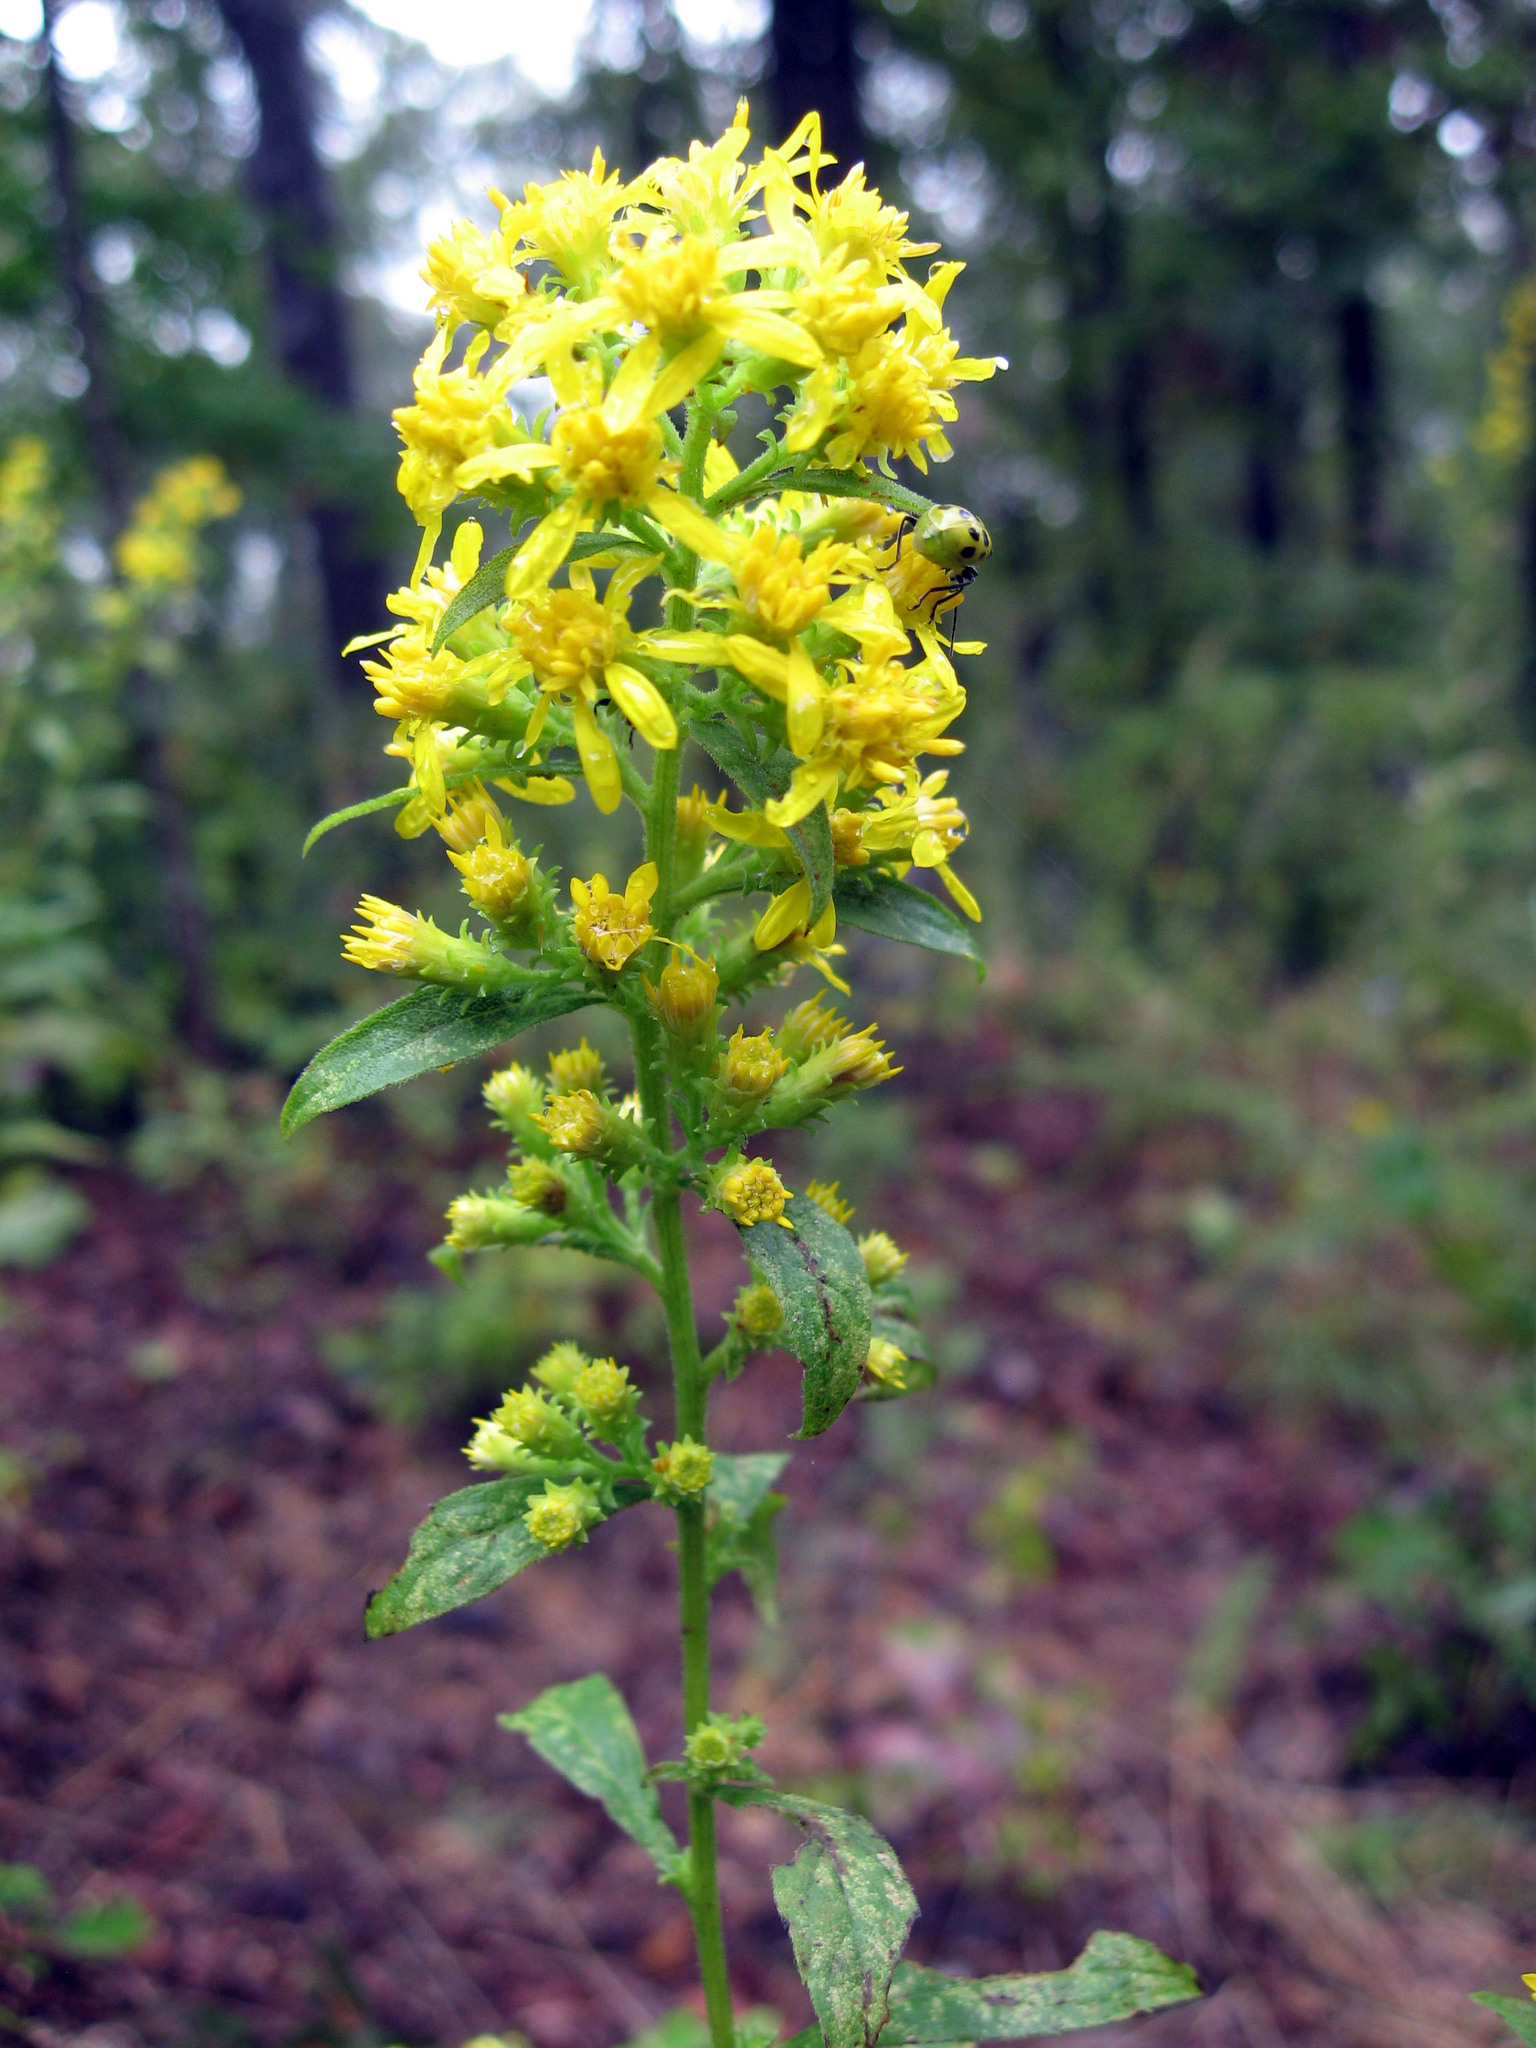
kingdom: Plantae
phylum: Tracheophyta
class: Magnoliopsida
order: Asterales
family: Asteraceae
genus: Solidago
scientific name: Solidago buckleyi
